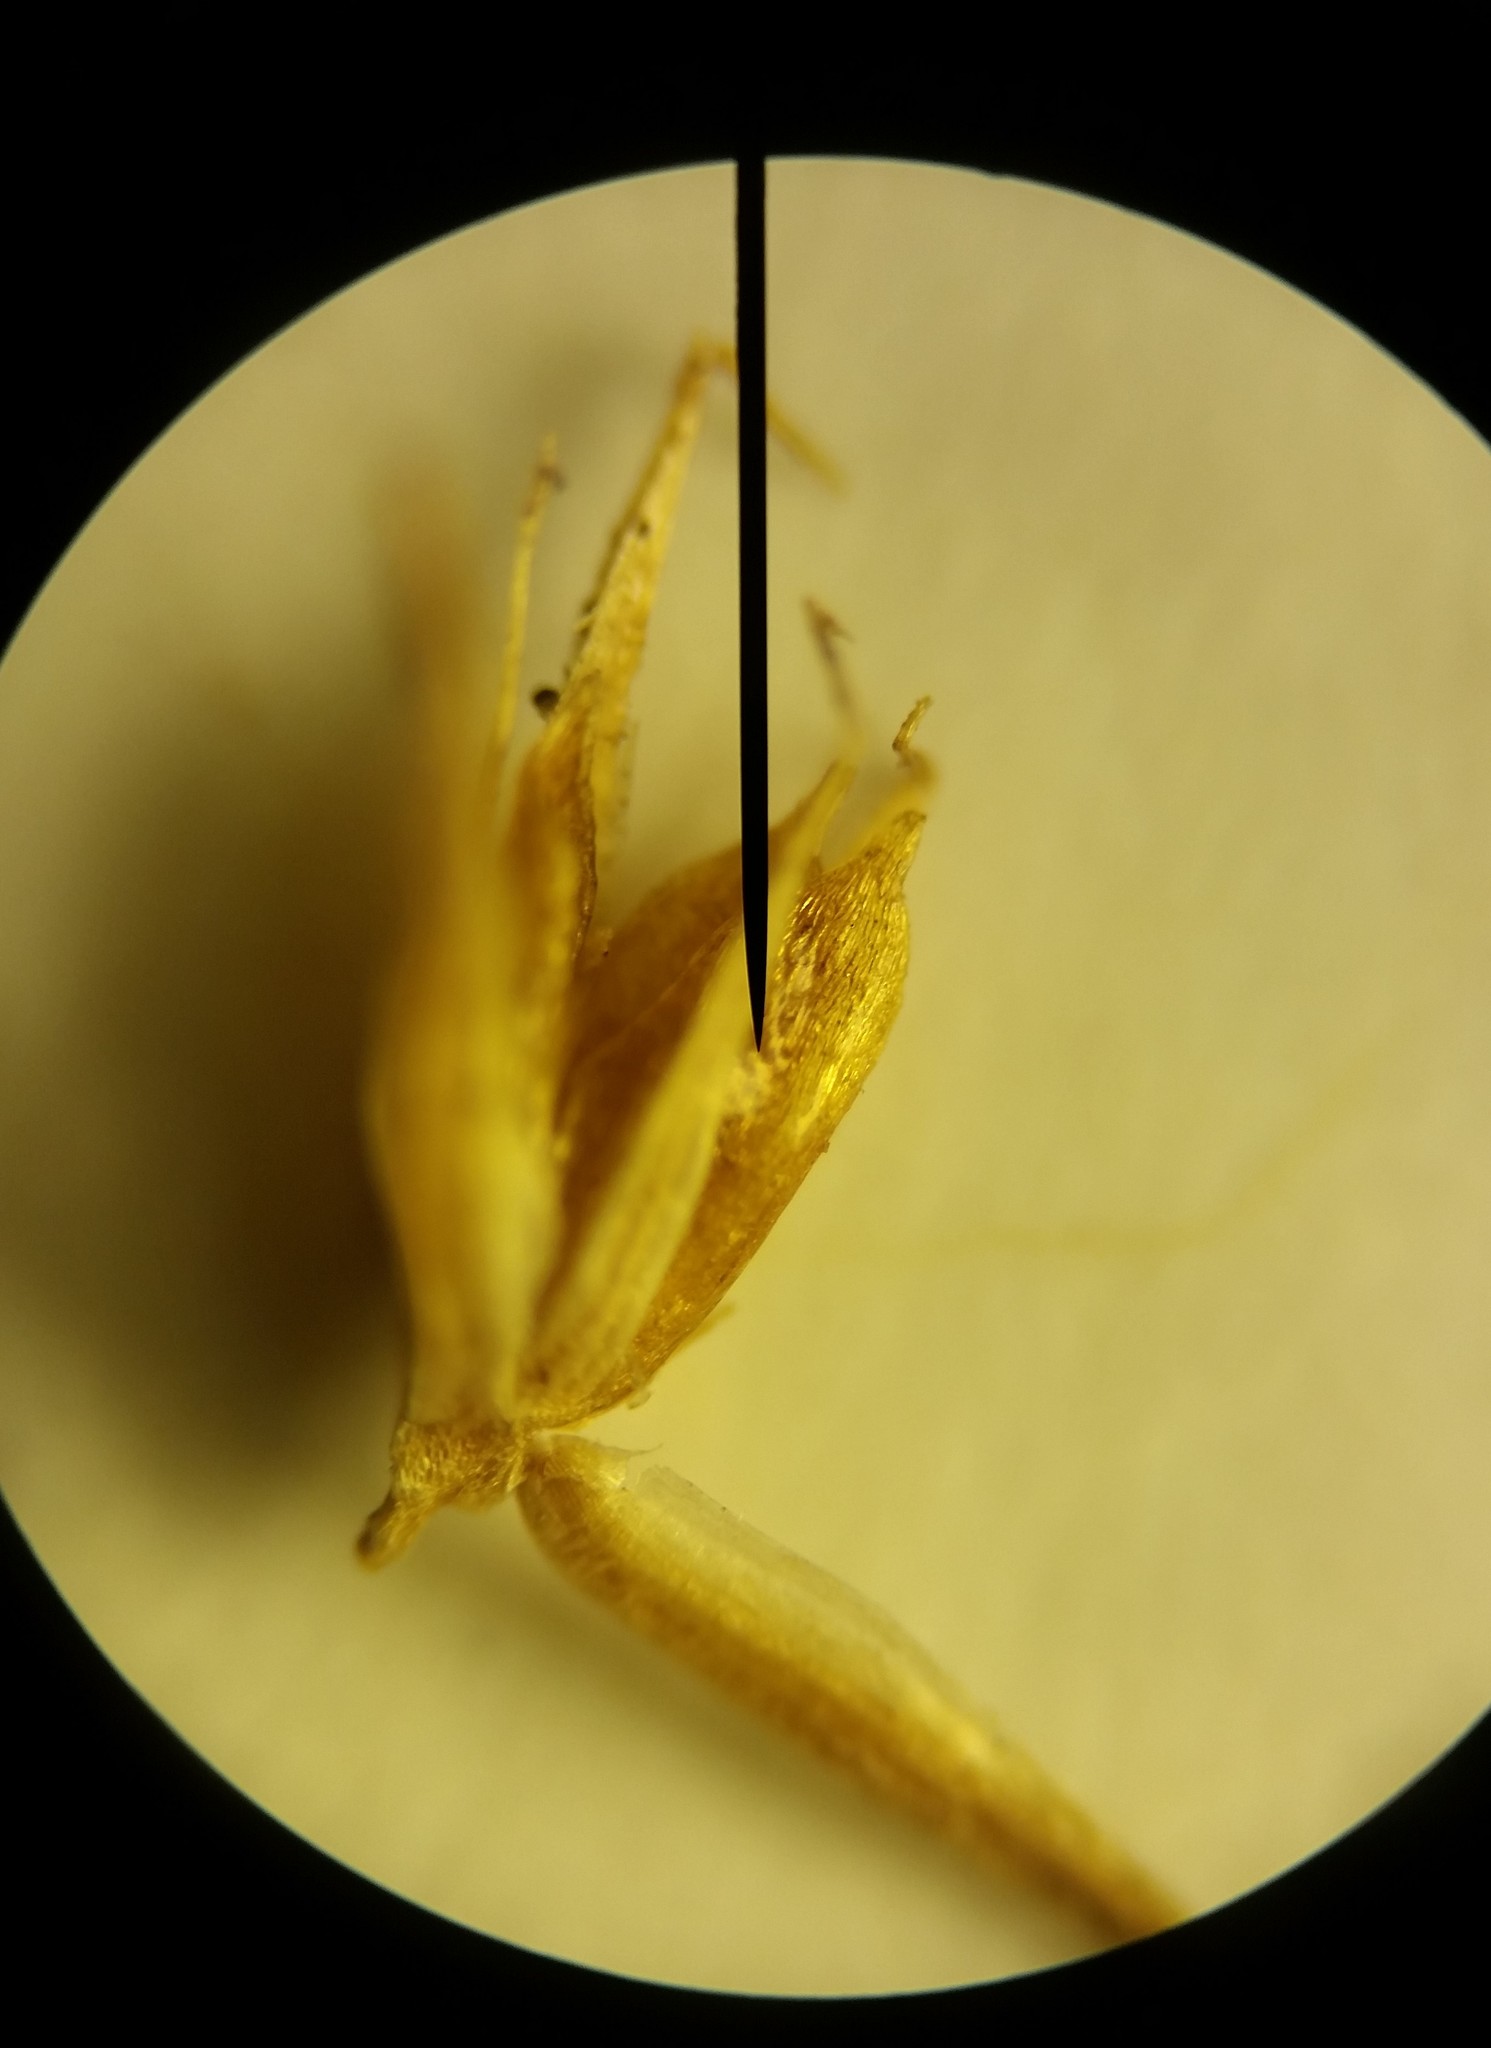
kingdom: Plantae
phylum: Tracheophyta
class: Liliopsida
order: Poales
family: Juncaceae
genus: Juncus
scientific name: Juncus brachycarpus
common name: Shore rush
